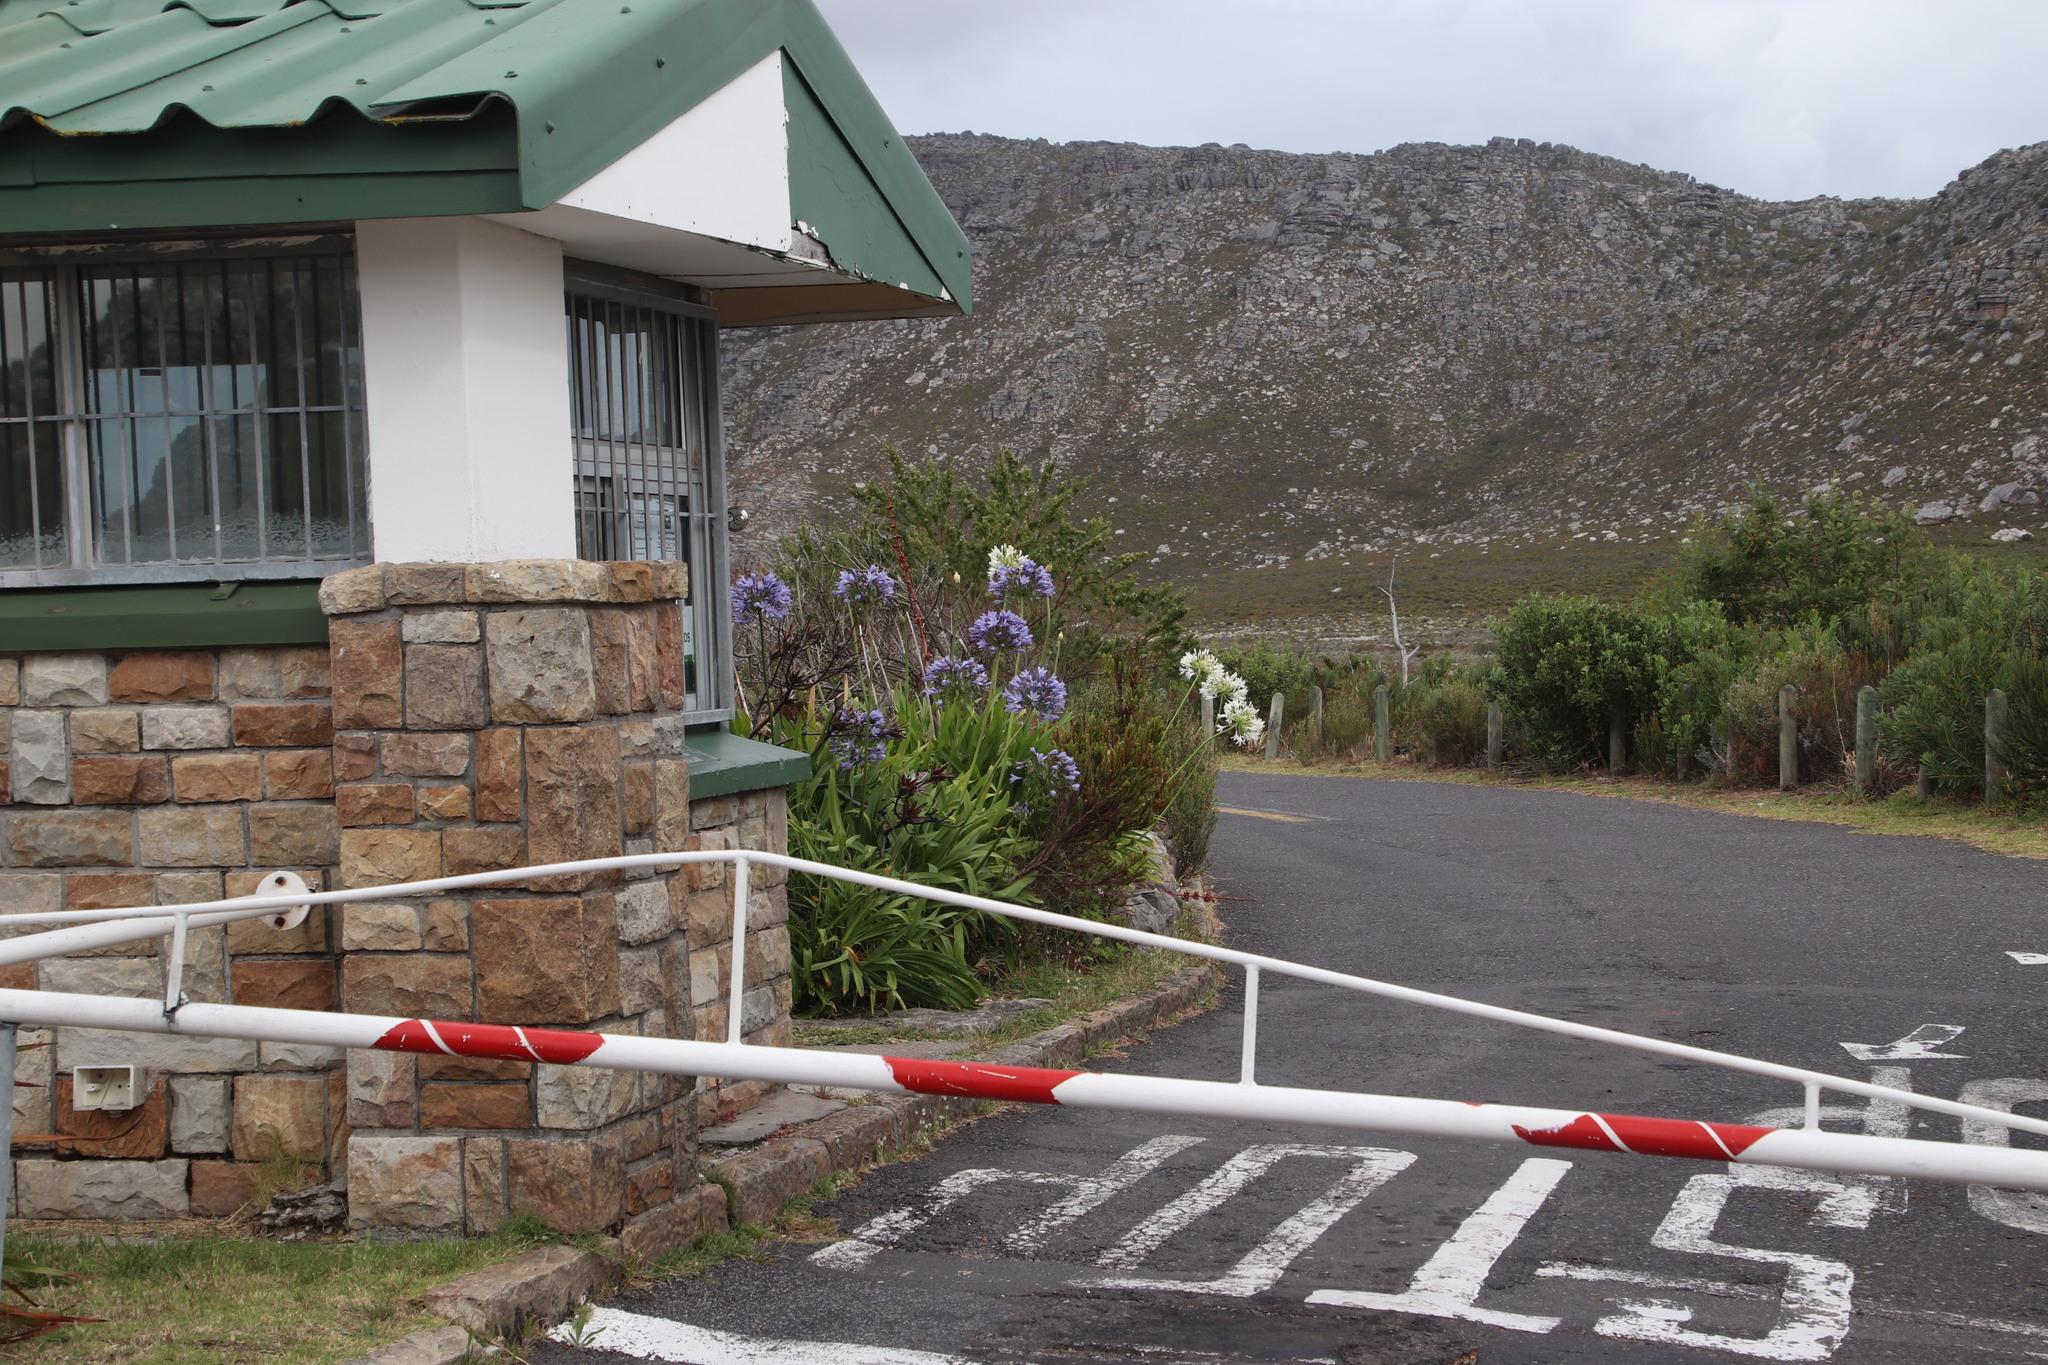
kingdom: Plantae
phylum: Tracheophyta
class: Liliopsida
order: Asparagales
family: Amaryllidaceae
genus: Agapanthus
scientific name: Agapanthus praecox
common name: African-lily
